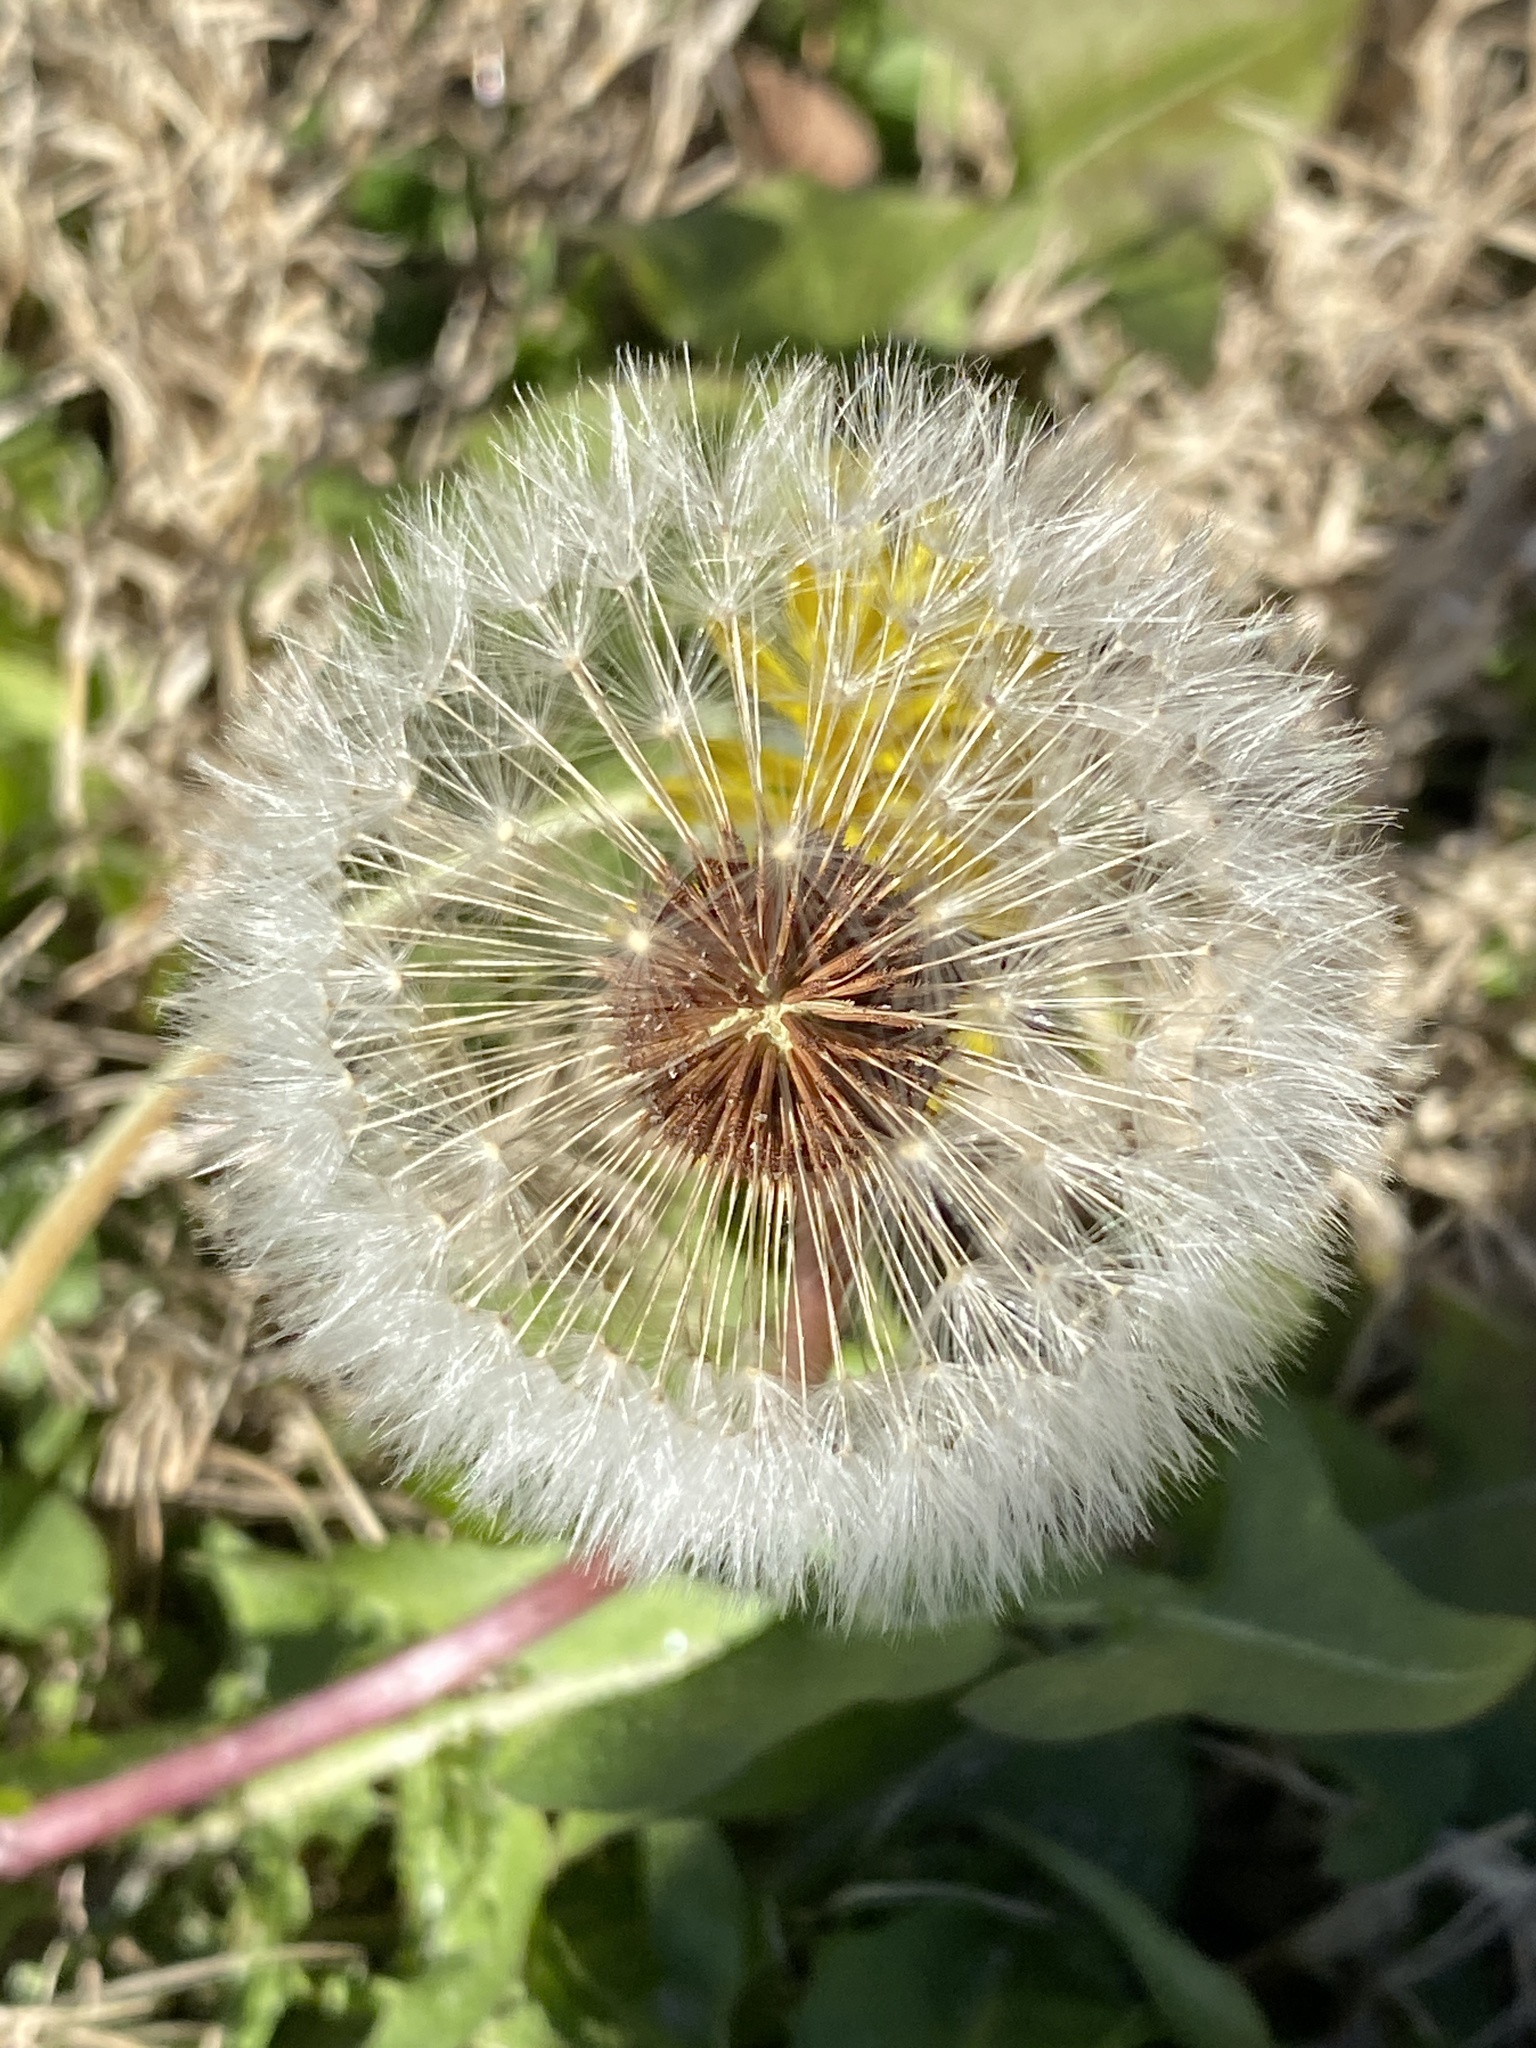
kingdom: Plantae
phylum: Tracheophyta
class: Magnoliopsida
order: Asterales
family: Asteraceae
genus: Taraxacum
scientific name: Taraxacum officinale
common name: Common dandelion
